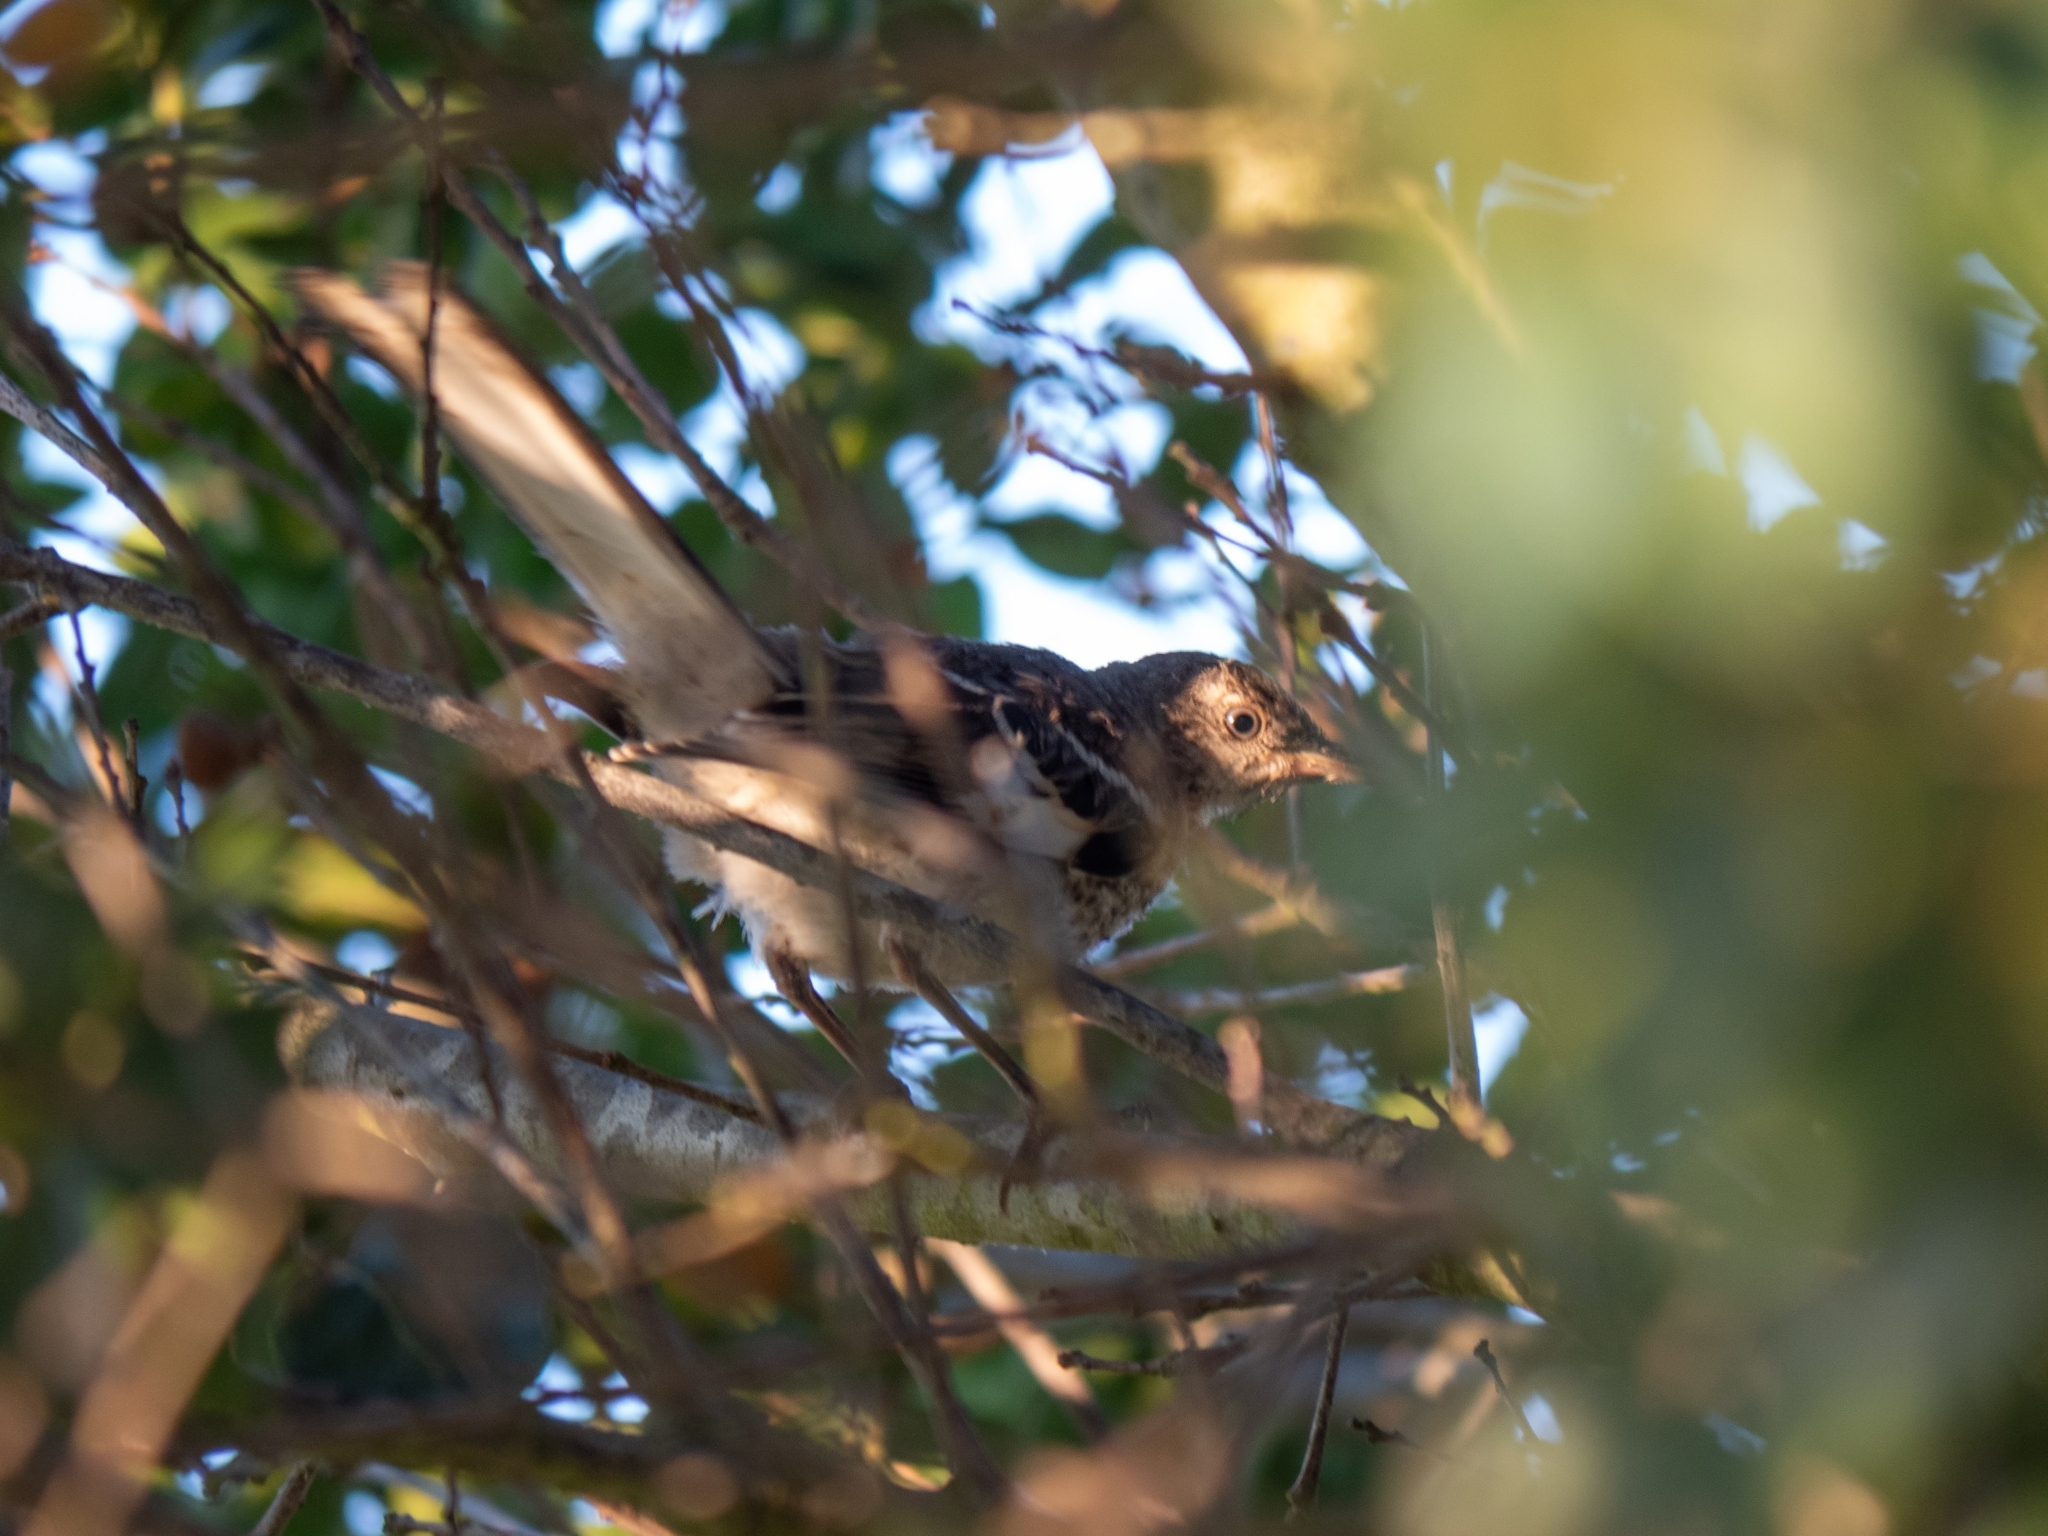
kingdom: Animalia
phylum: Chordata
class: Aves
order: Passeriformes
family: Mimidae
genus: Mimus
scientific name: Mimus polyglottos
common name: Northern mockingbird
